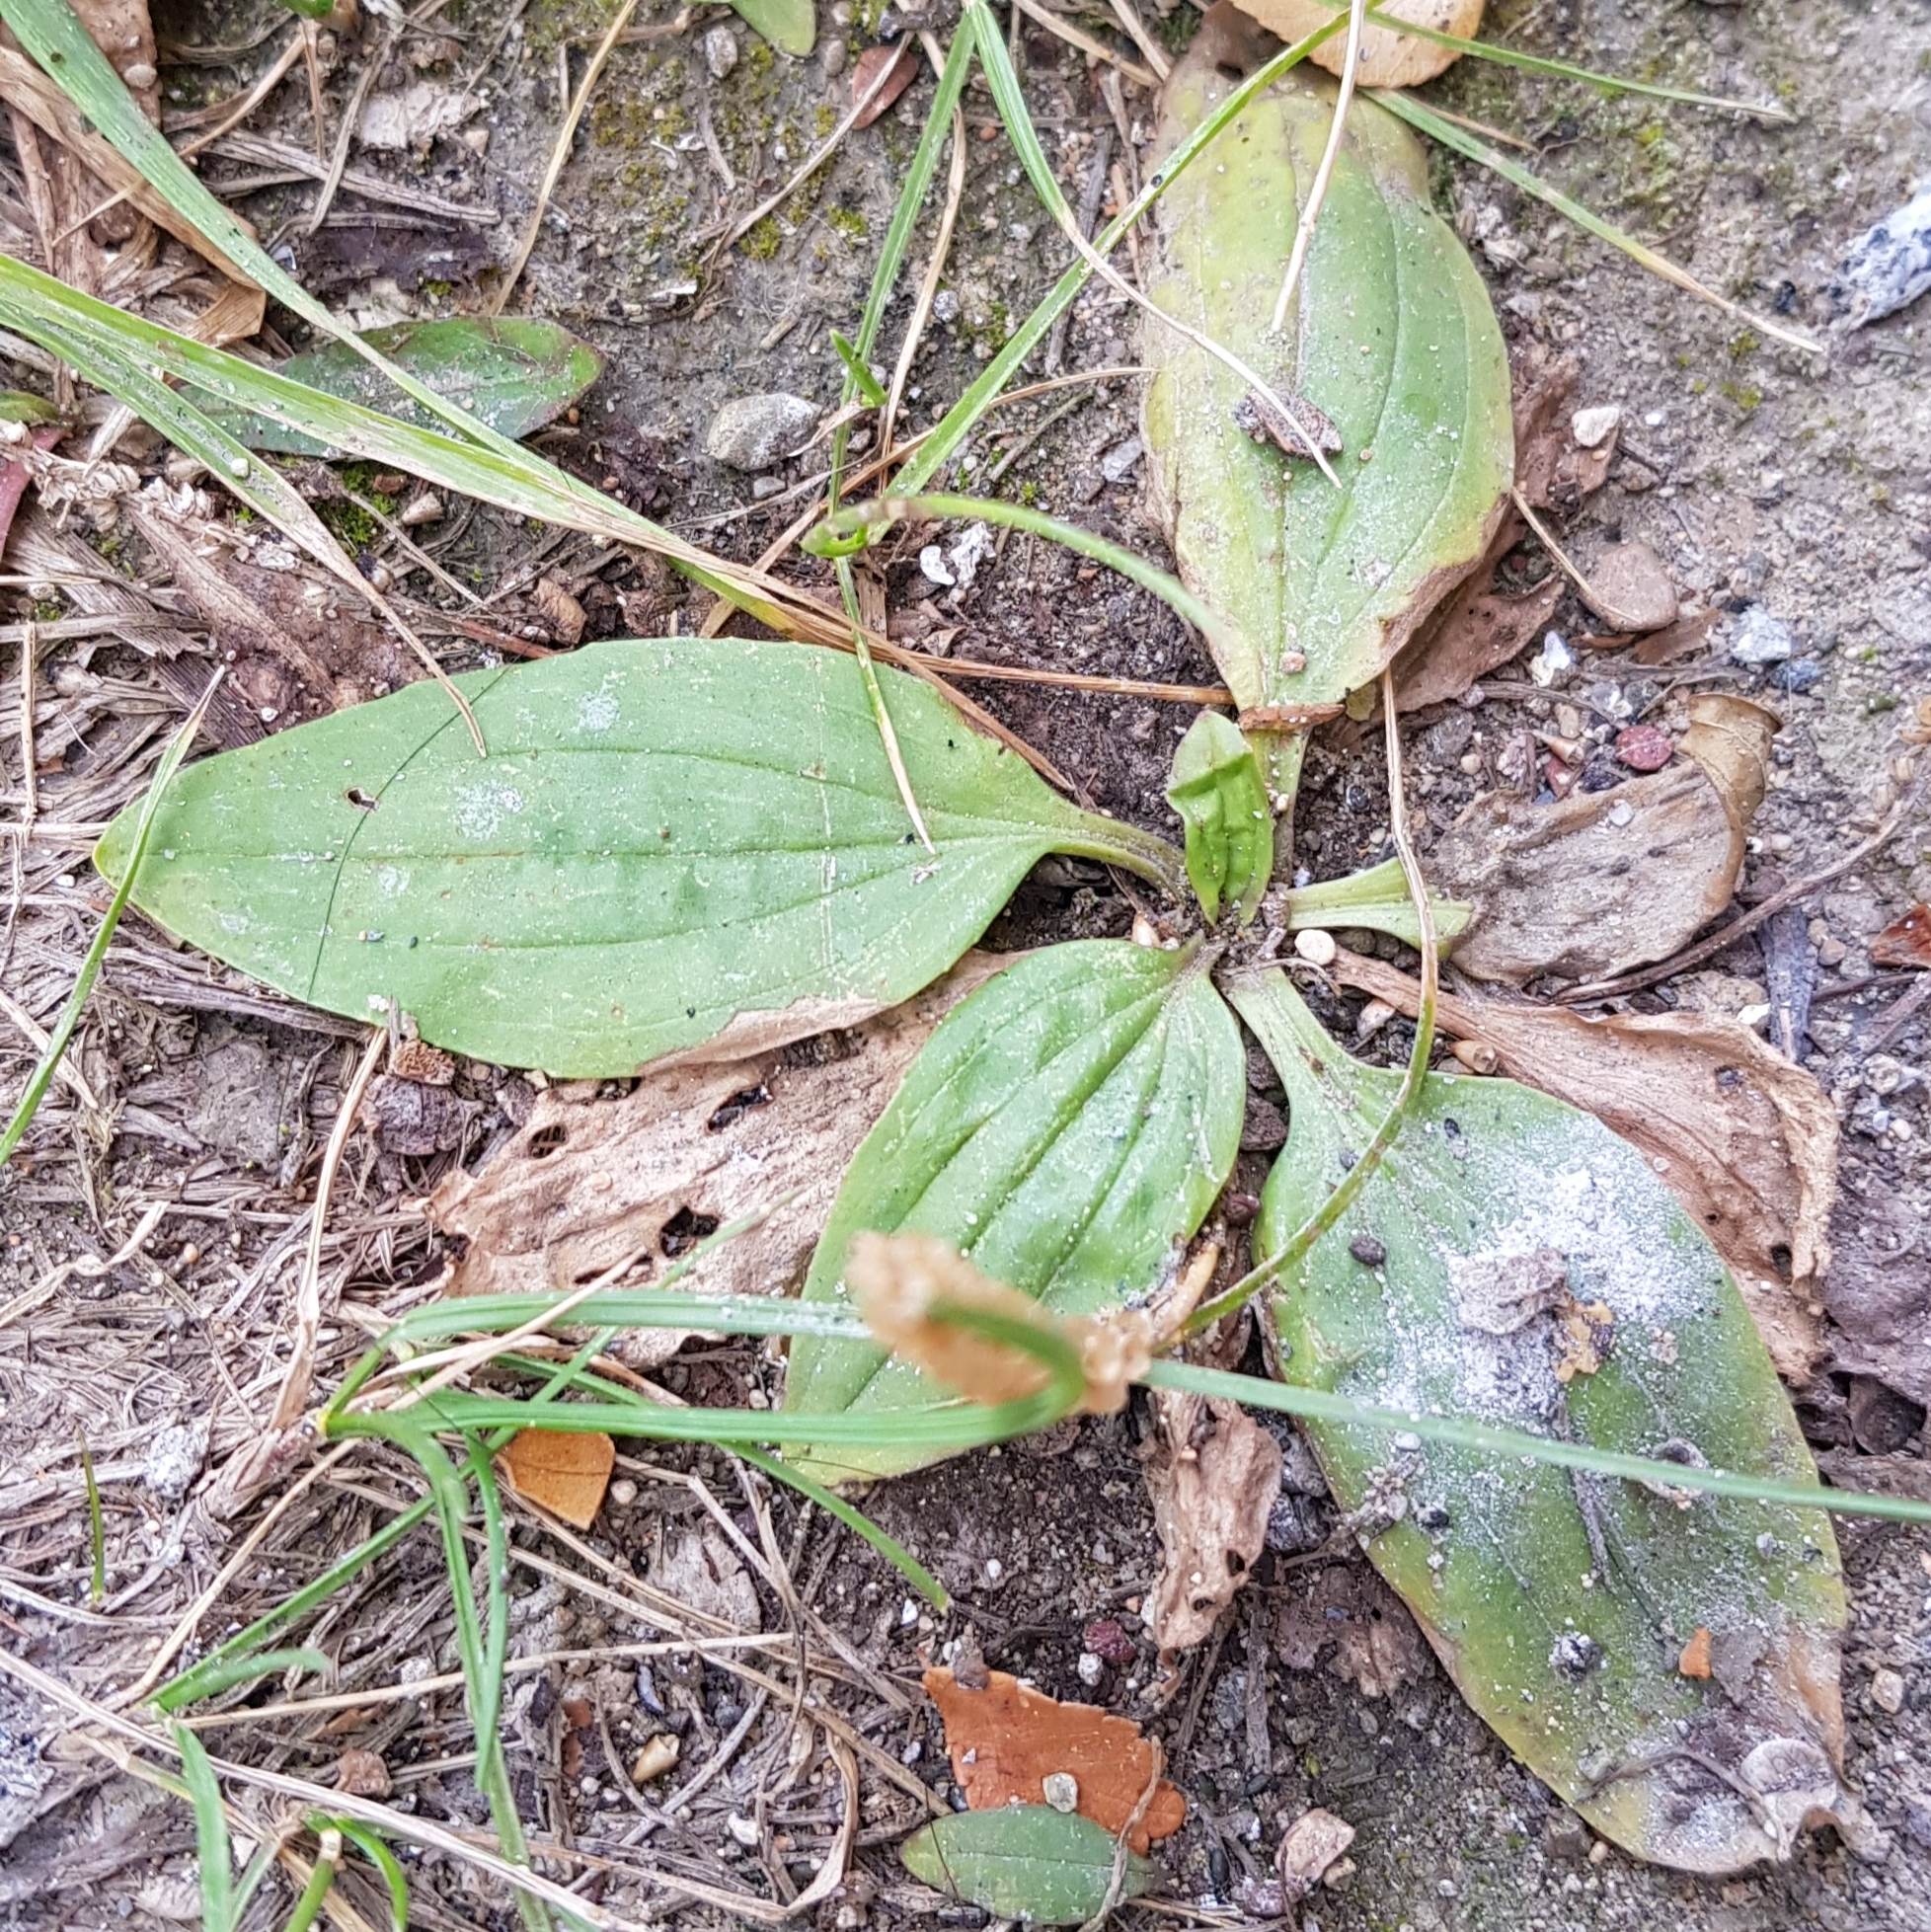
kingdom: Plantae
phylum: Tracheophyta
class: Magnoliopsida
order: Lamiales
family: Plantaginaceae
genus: Plantago
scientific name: Plantago depressa
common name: Depressed plantain
